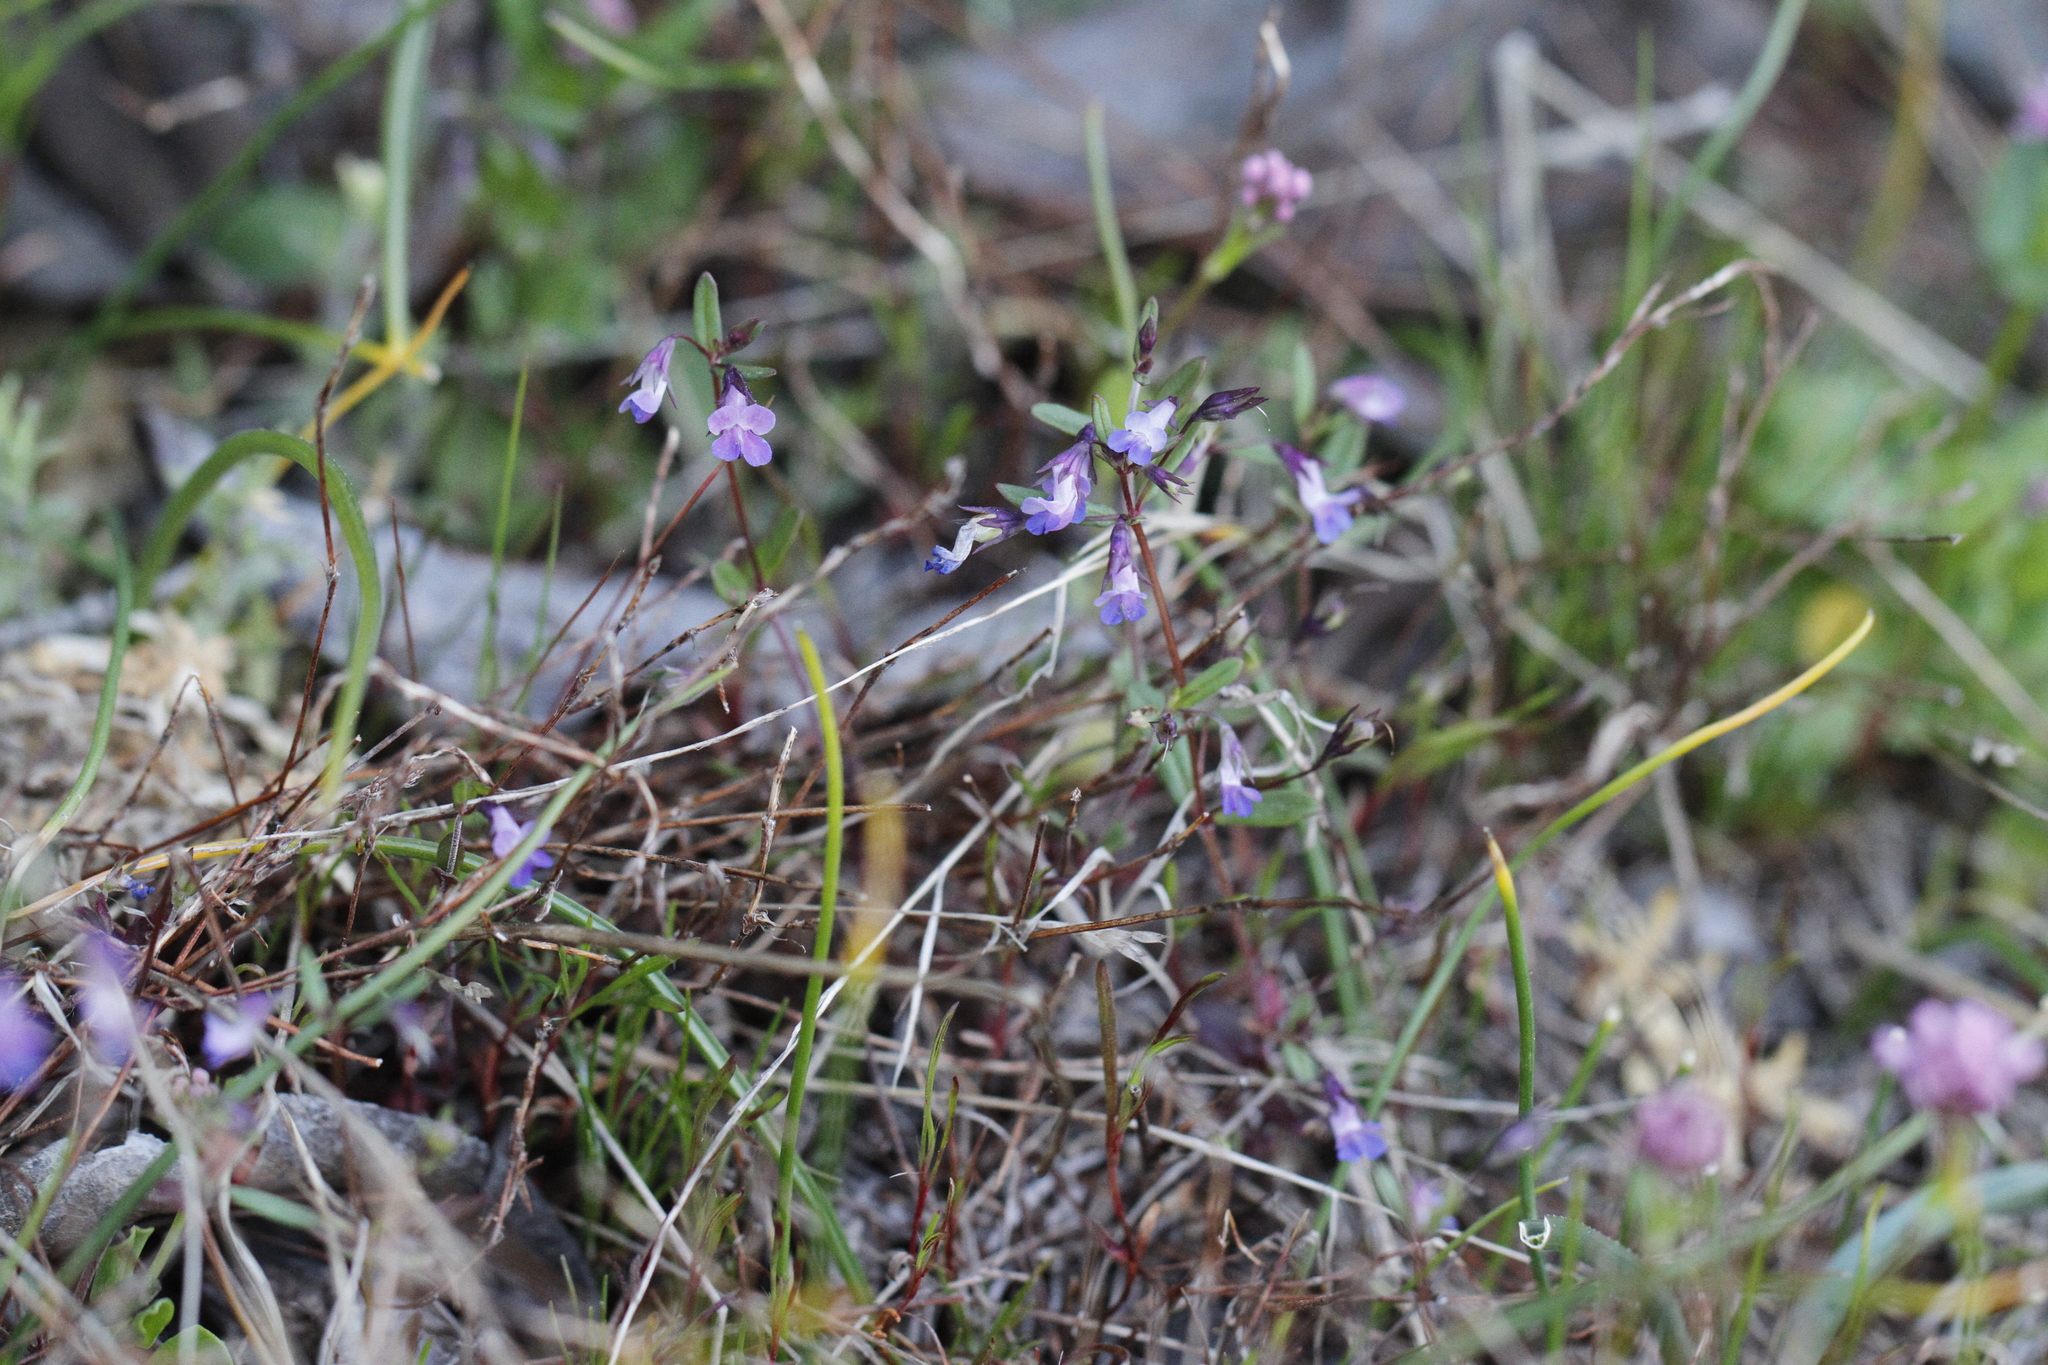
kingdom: Plantae
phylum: Tracheophyta
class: Magnoliopsida
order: Lamiales
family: Plantaginaceae
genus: Collinsia
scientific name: Collinsia parviflora
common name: Blue-lips
